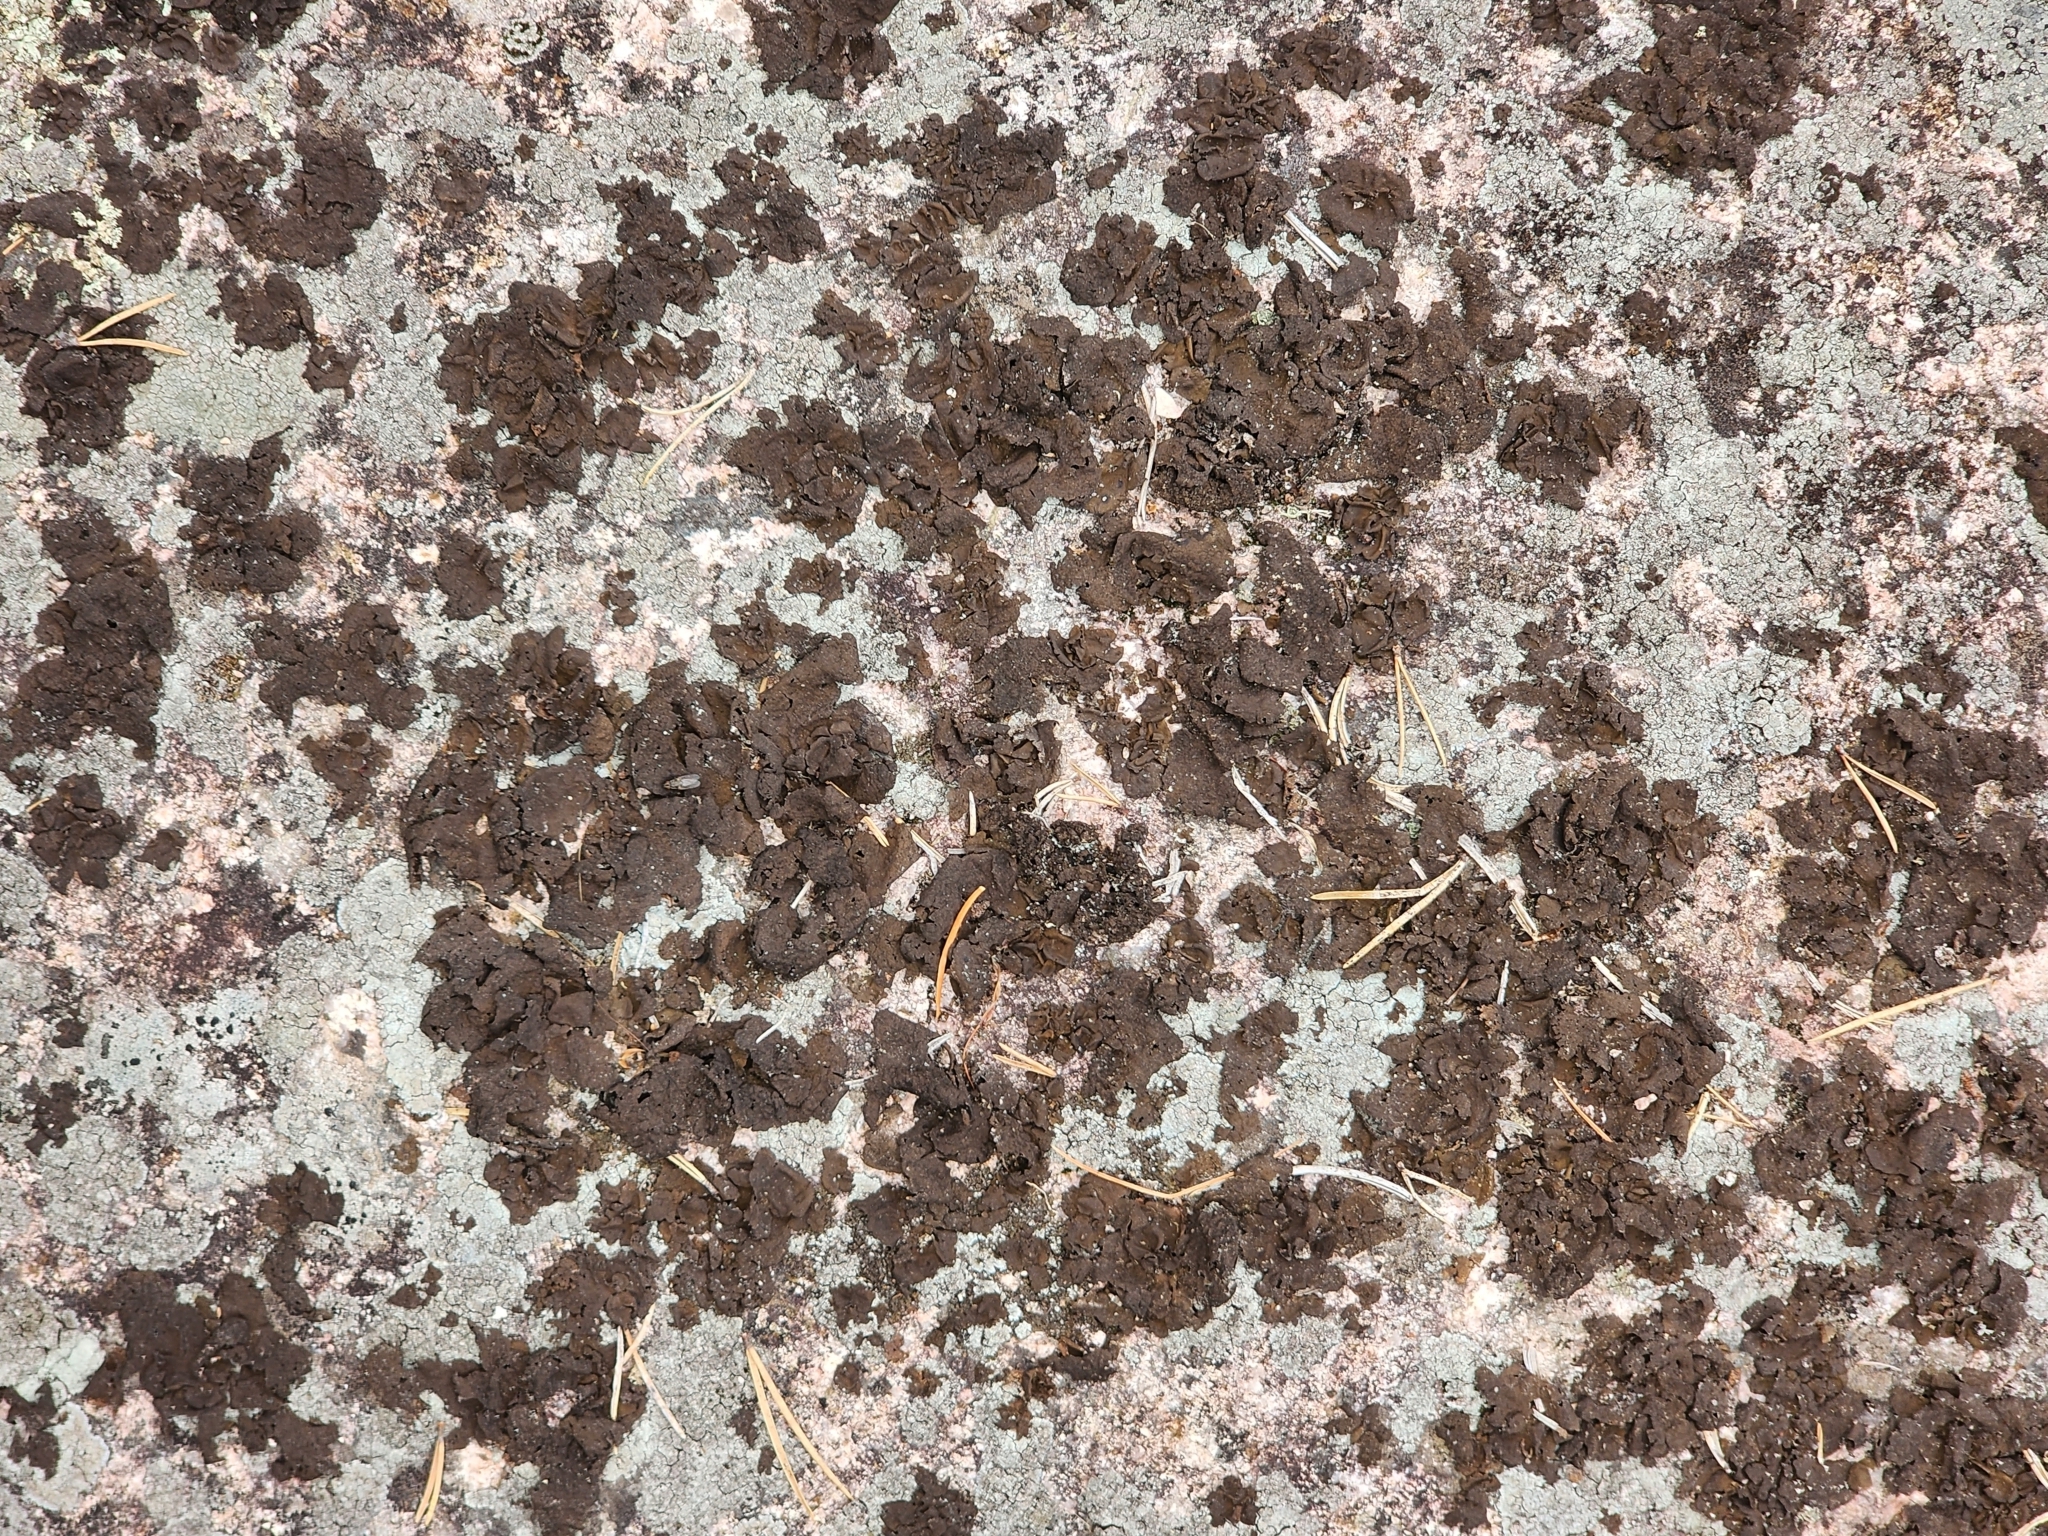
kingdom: Fungi
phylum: Ascomycota
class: Lecanoromycetes
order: Umbilicariales
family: Umbilicariaceae
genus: Umbilicaria
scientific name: Umbilicaria muhlenbergii
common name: Lesser rocktripe
